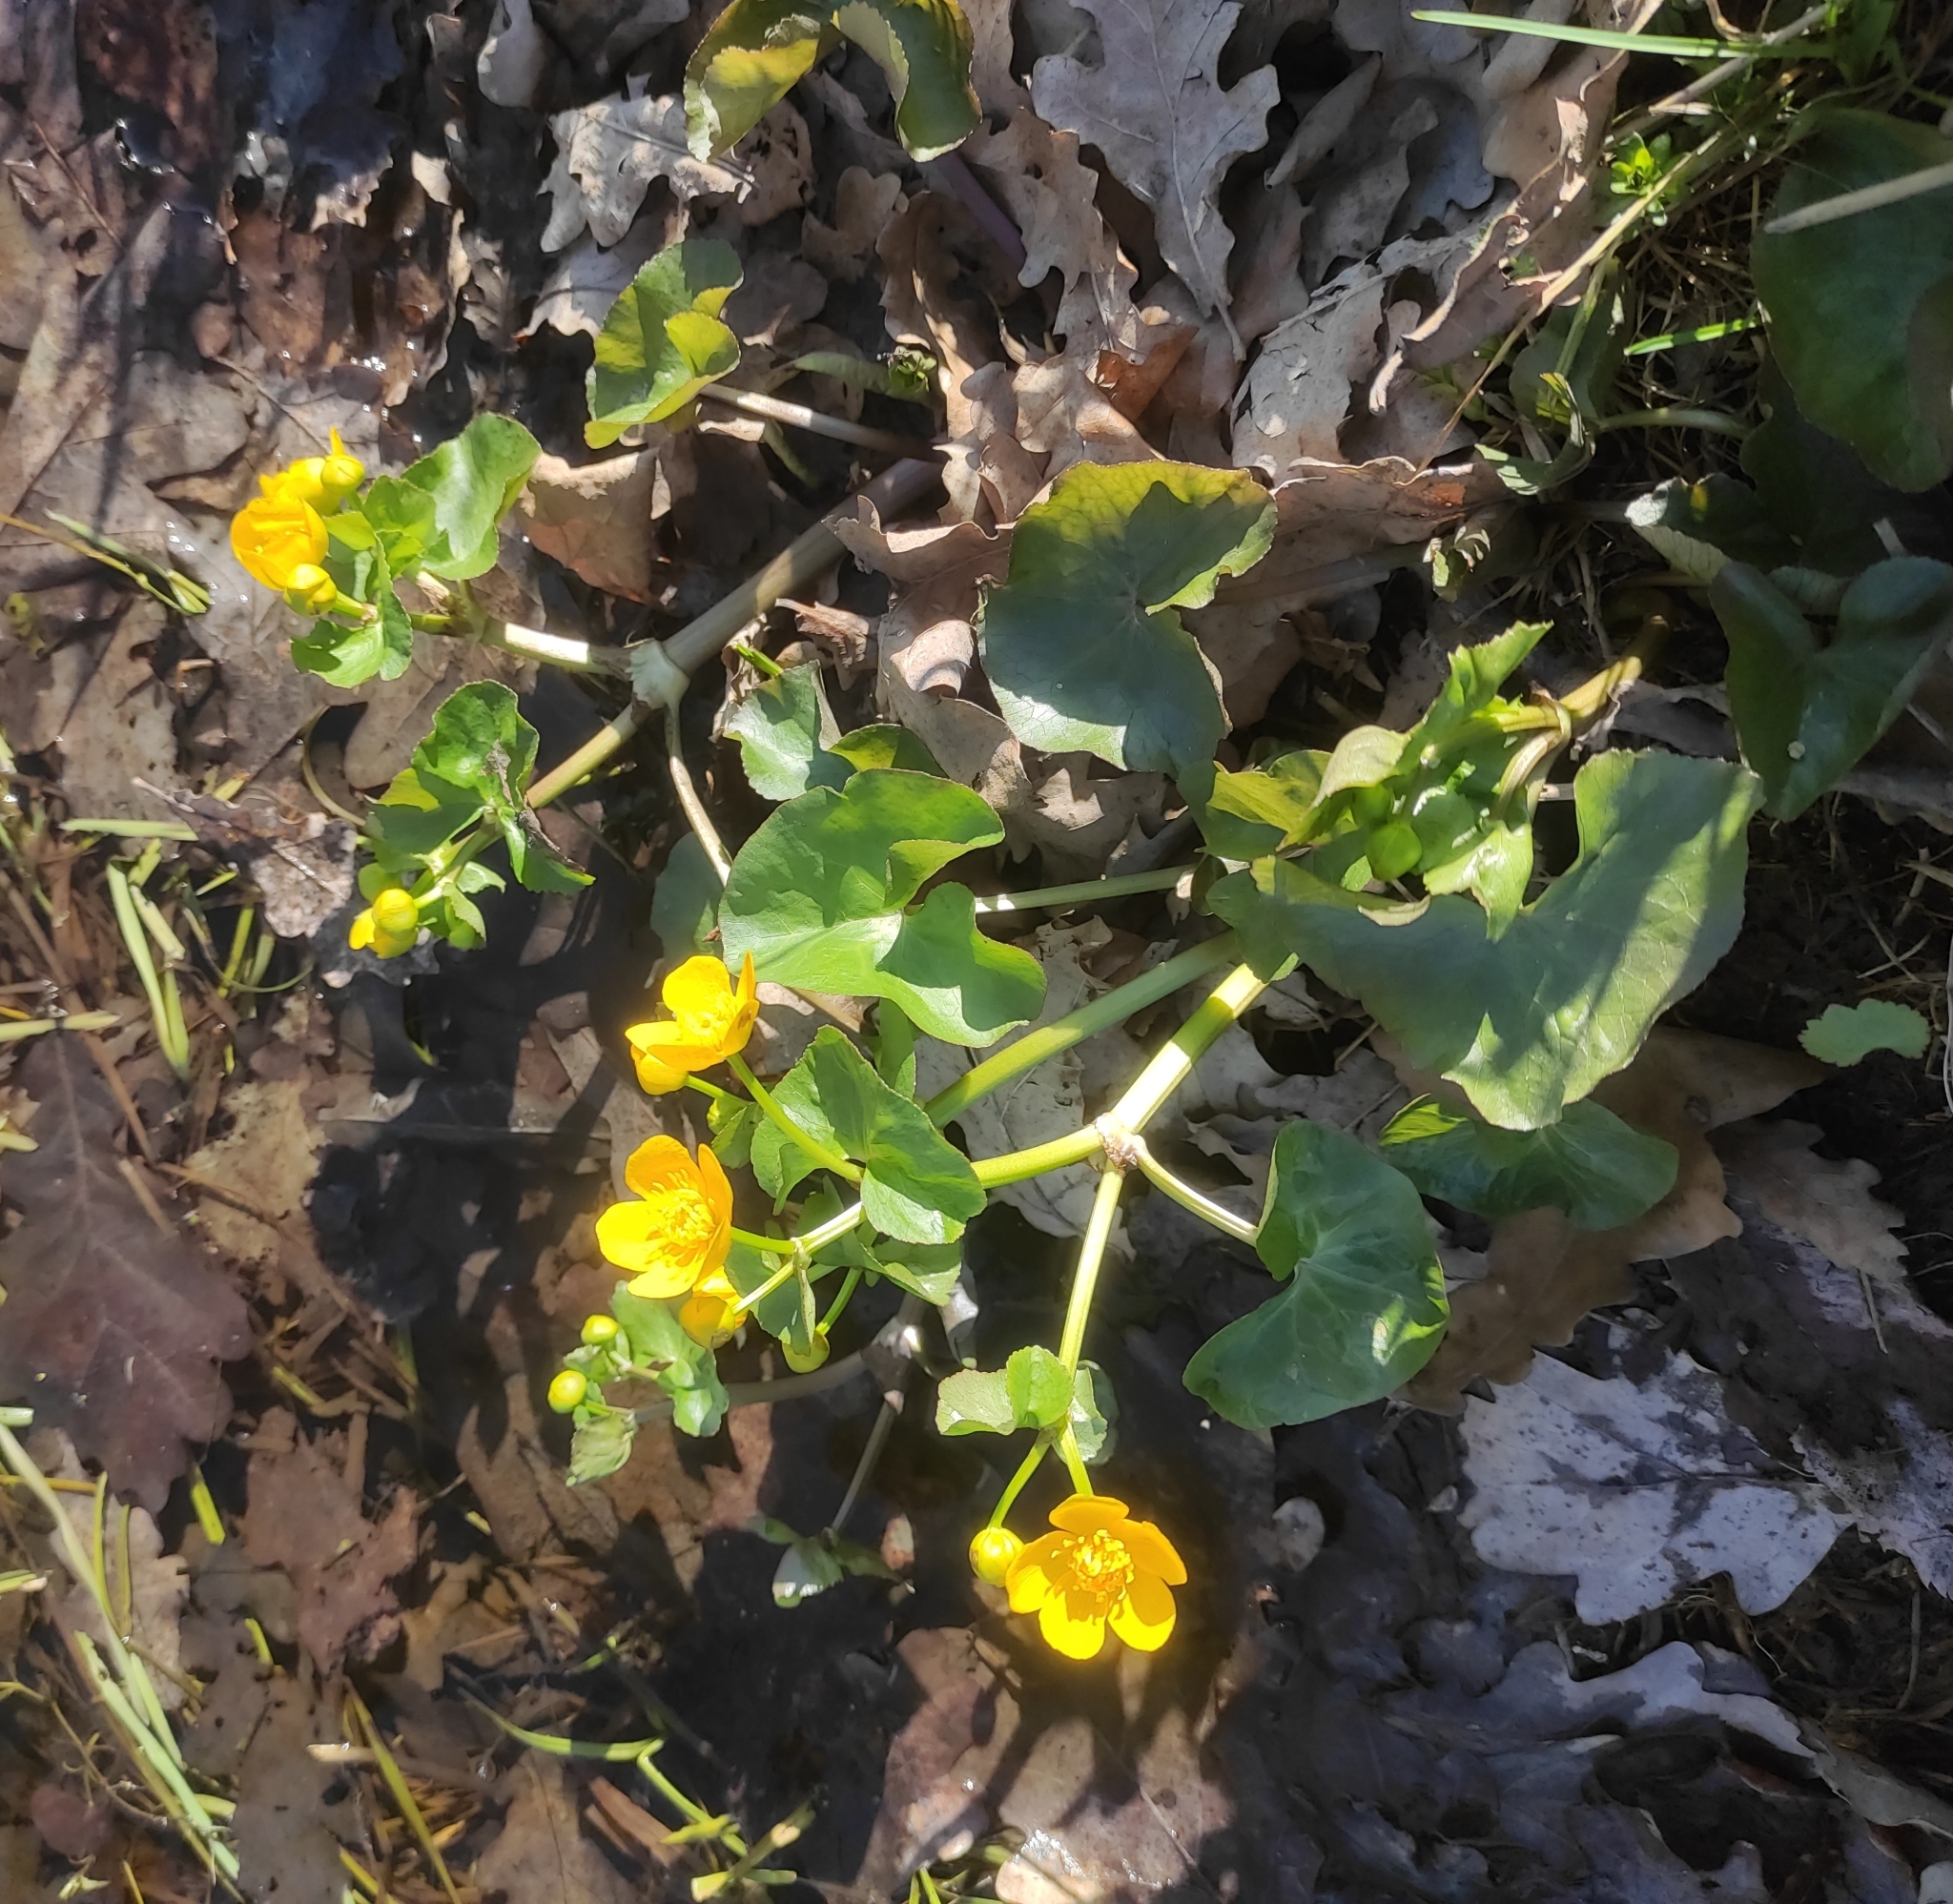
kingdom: Plantae
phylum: Tracheophyta
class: Magnoliopsida
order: Ranunculales
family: Ranunculaceae
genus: Caltha
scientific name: Caltha palustris
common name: Marsh marigold
